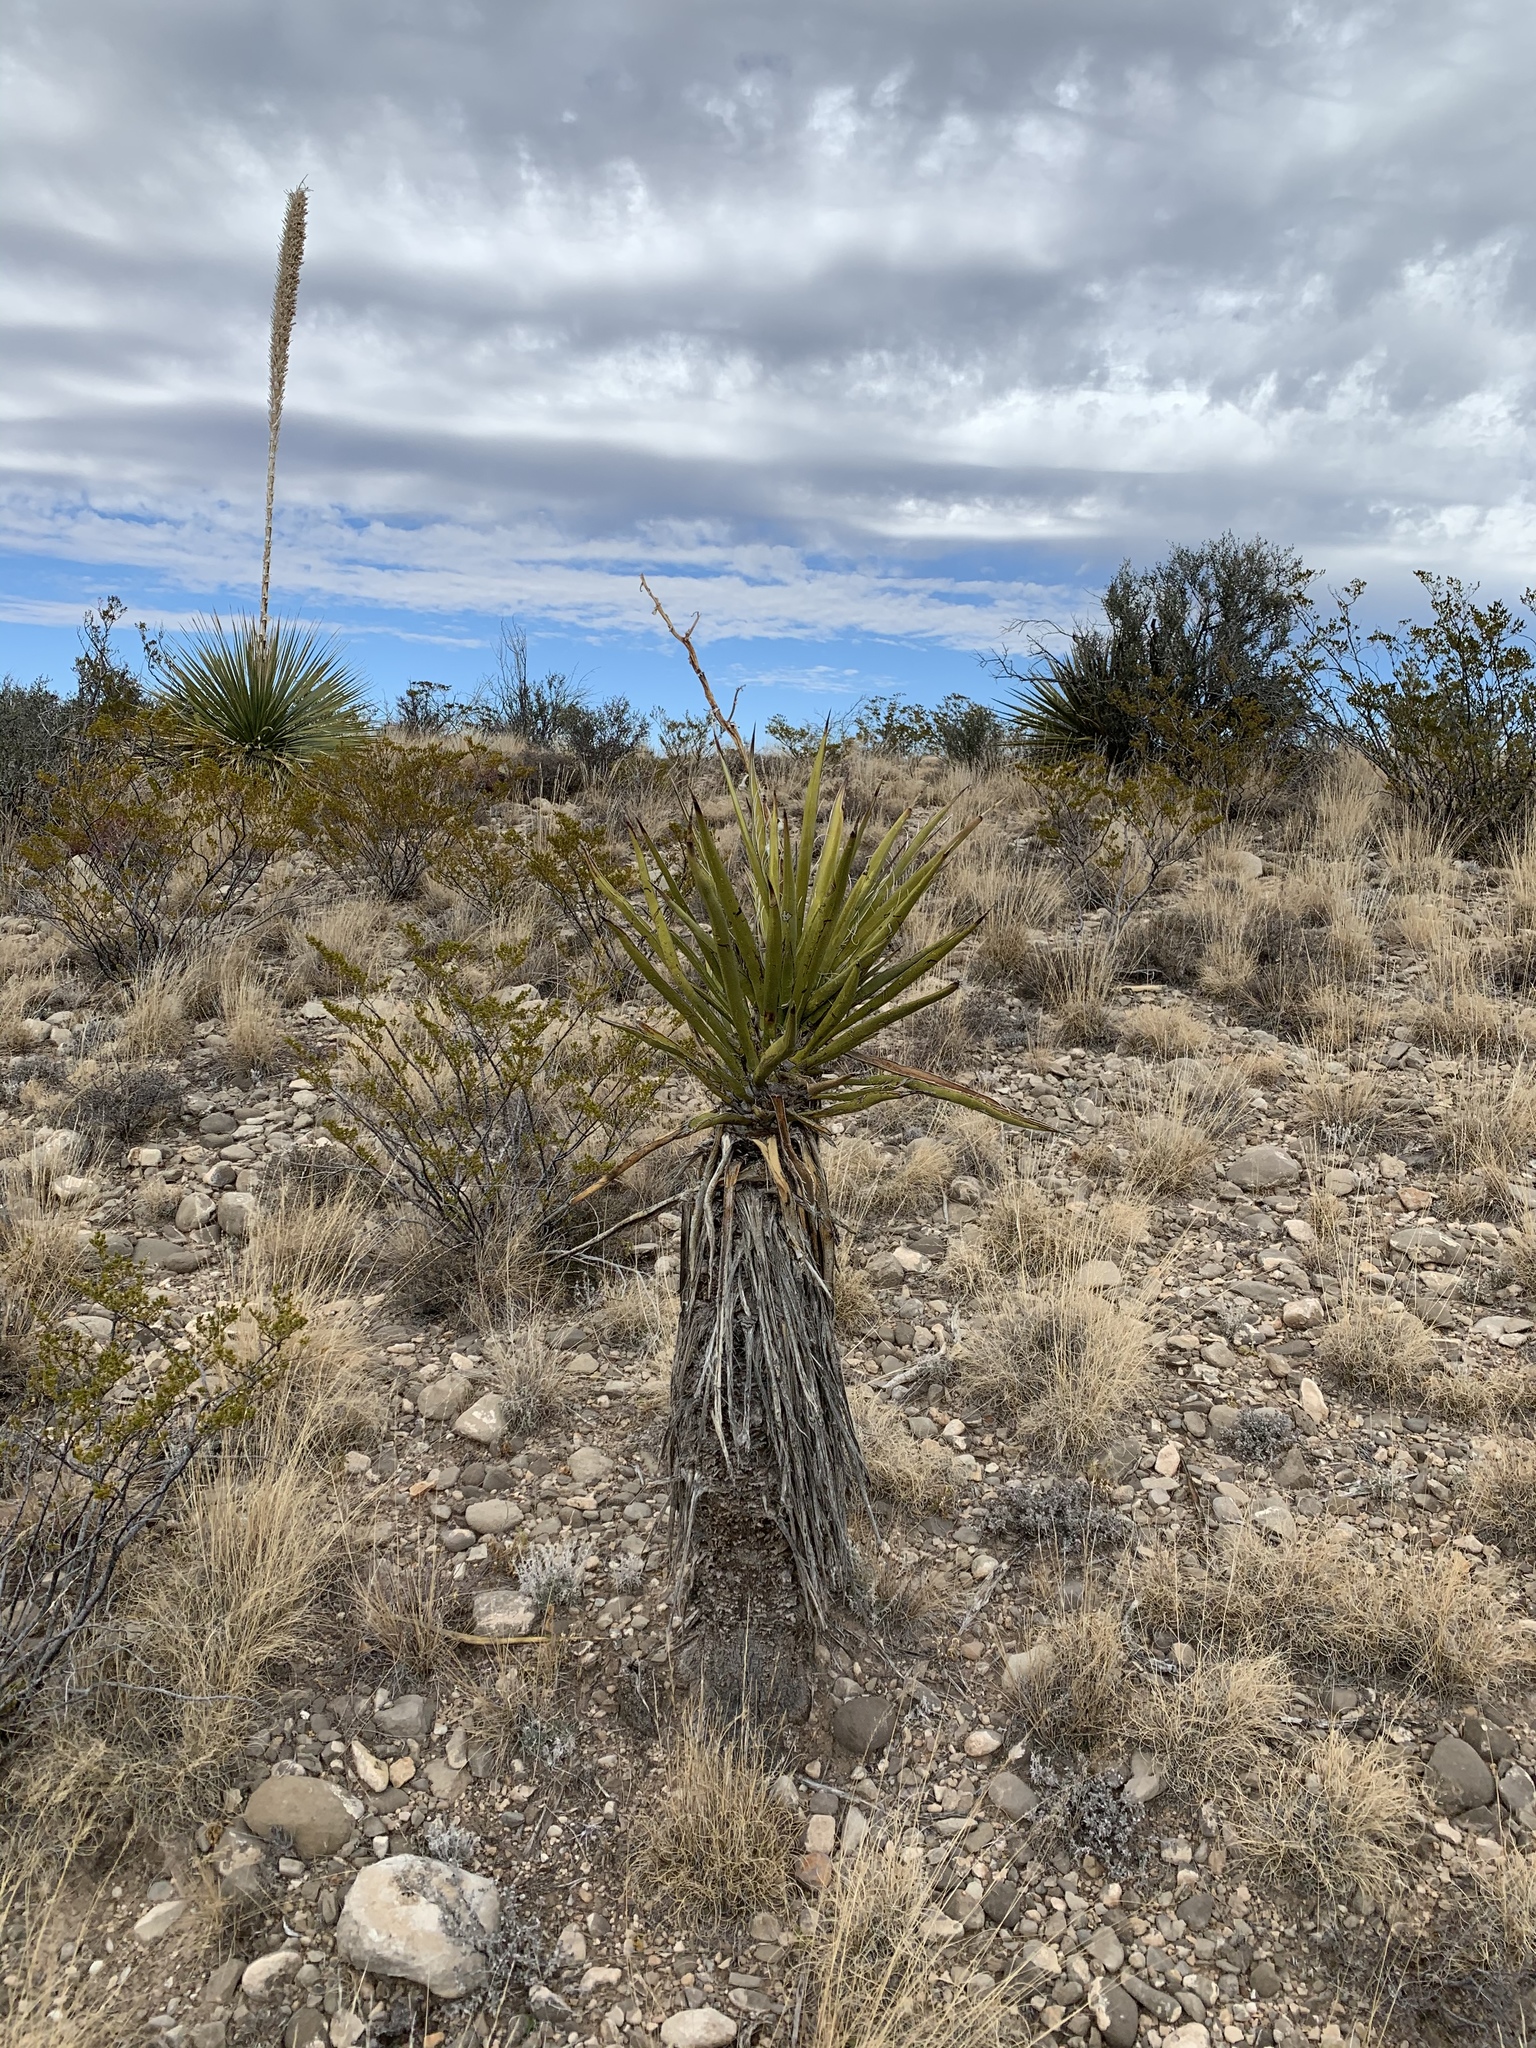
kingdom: Plantae
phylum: Tracheophyta
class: Liliopsida
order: Asparagales
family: Asparagaceae
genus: Yucca
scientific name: Yucca treculiana
